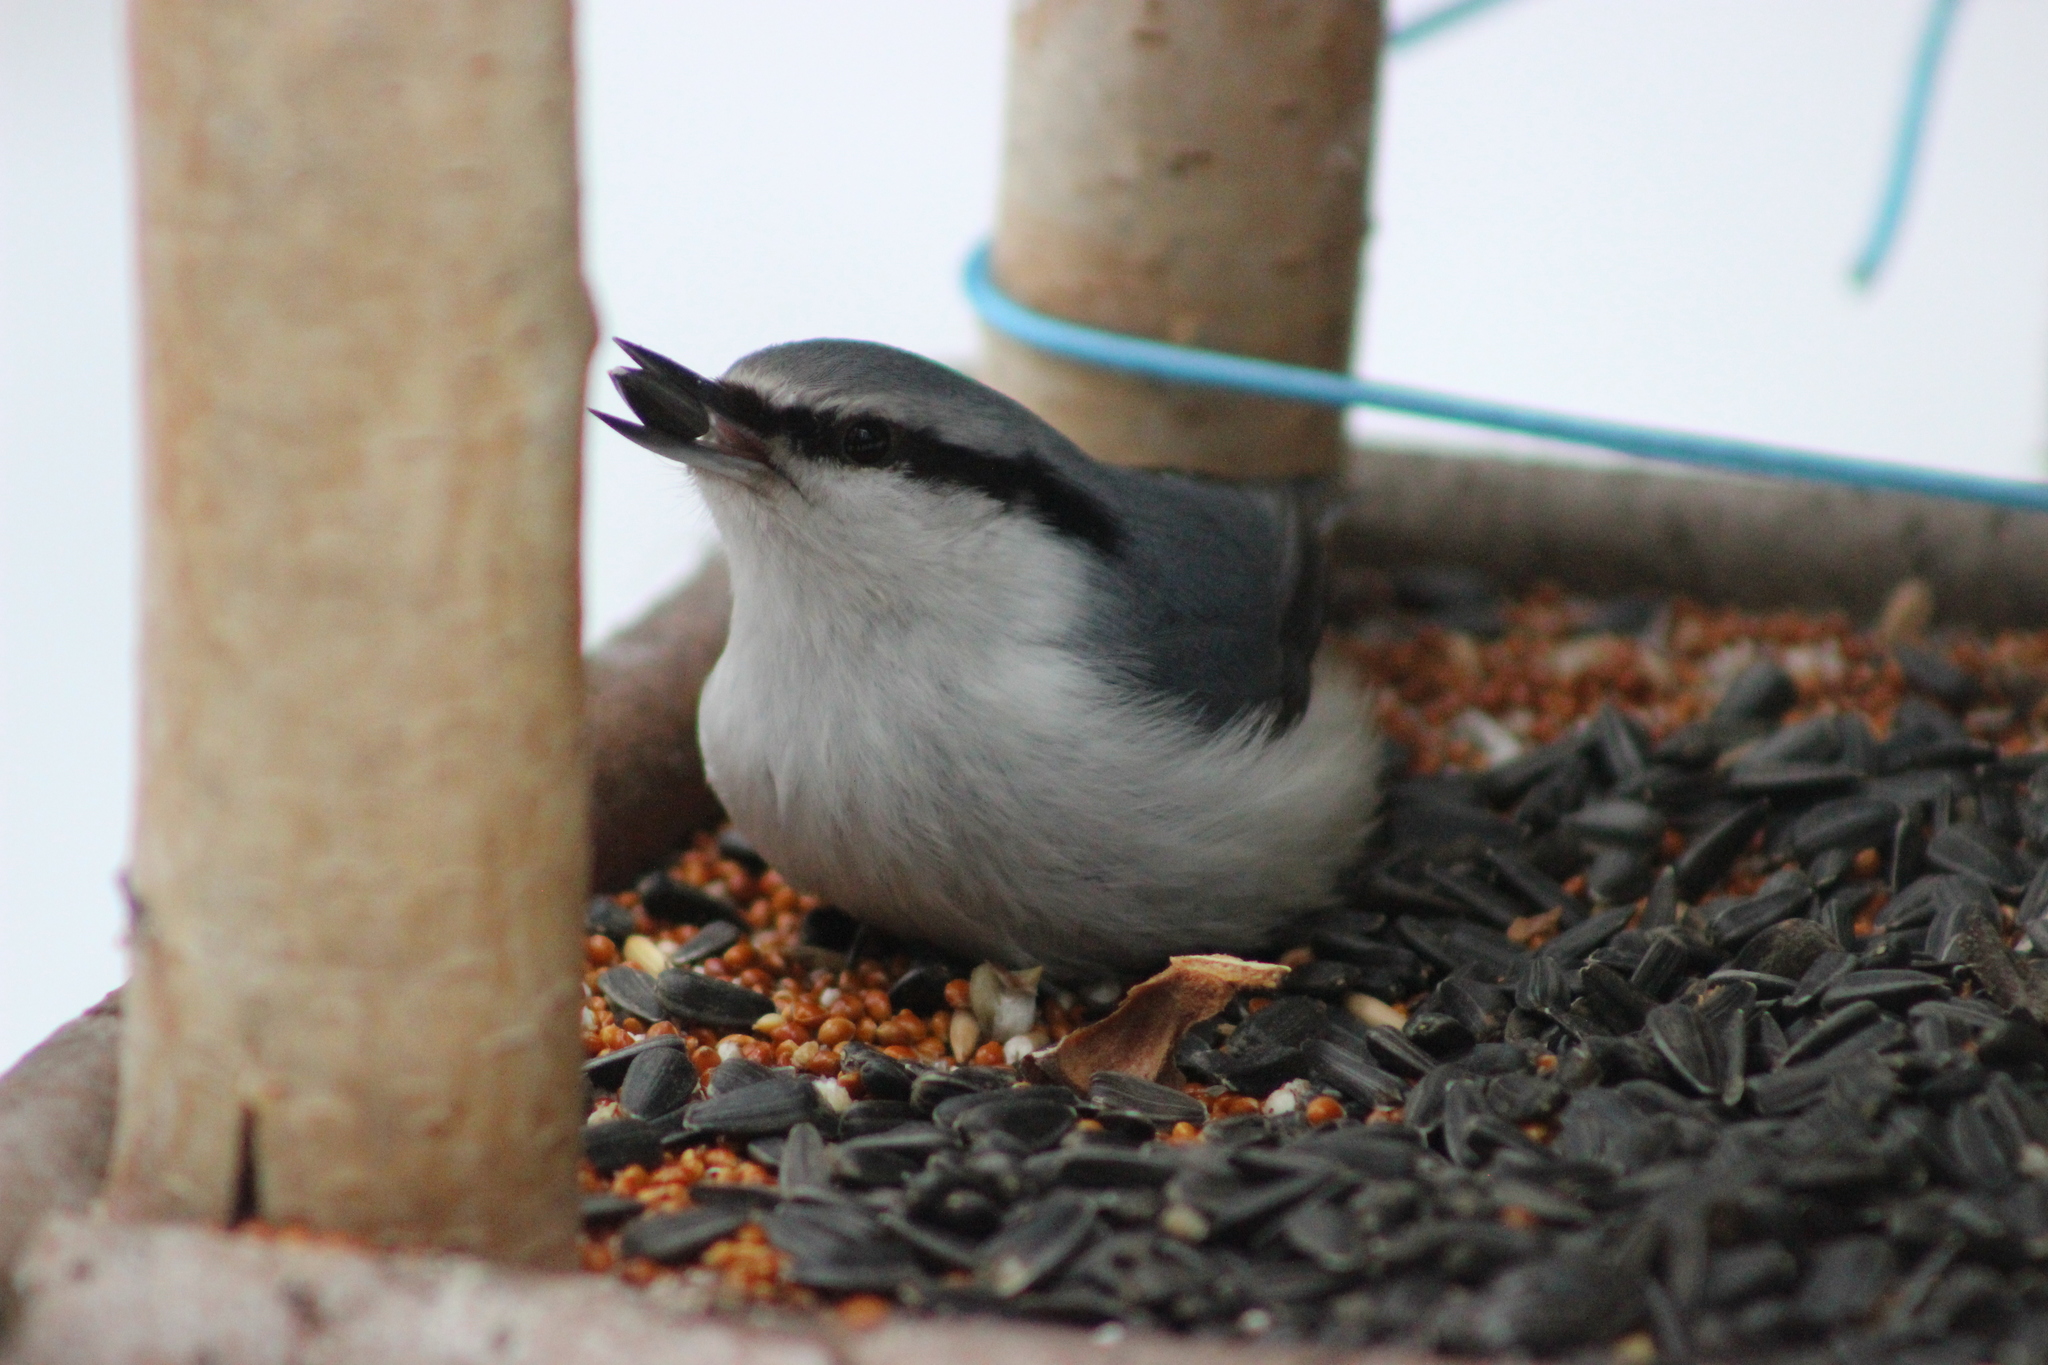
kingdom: Animalia
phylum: Chordata
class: Aves
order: Passeriformes
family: Sittidae
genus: Sitta
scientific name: Sitta europaea
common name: Eurasian nuthatch
